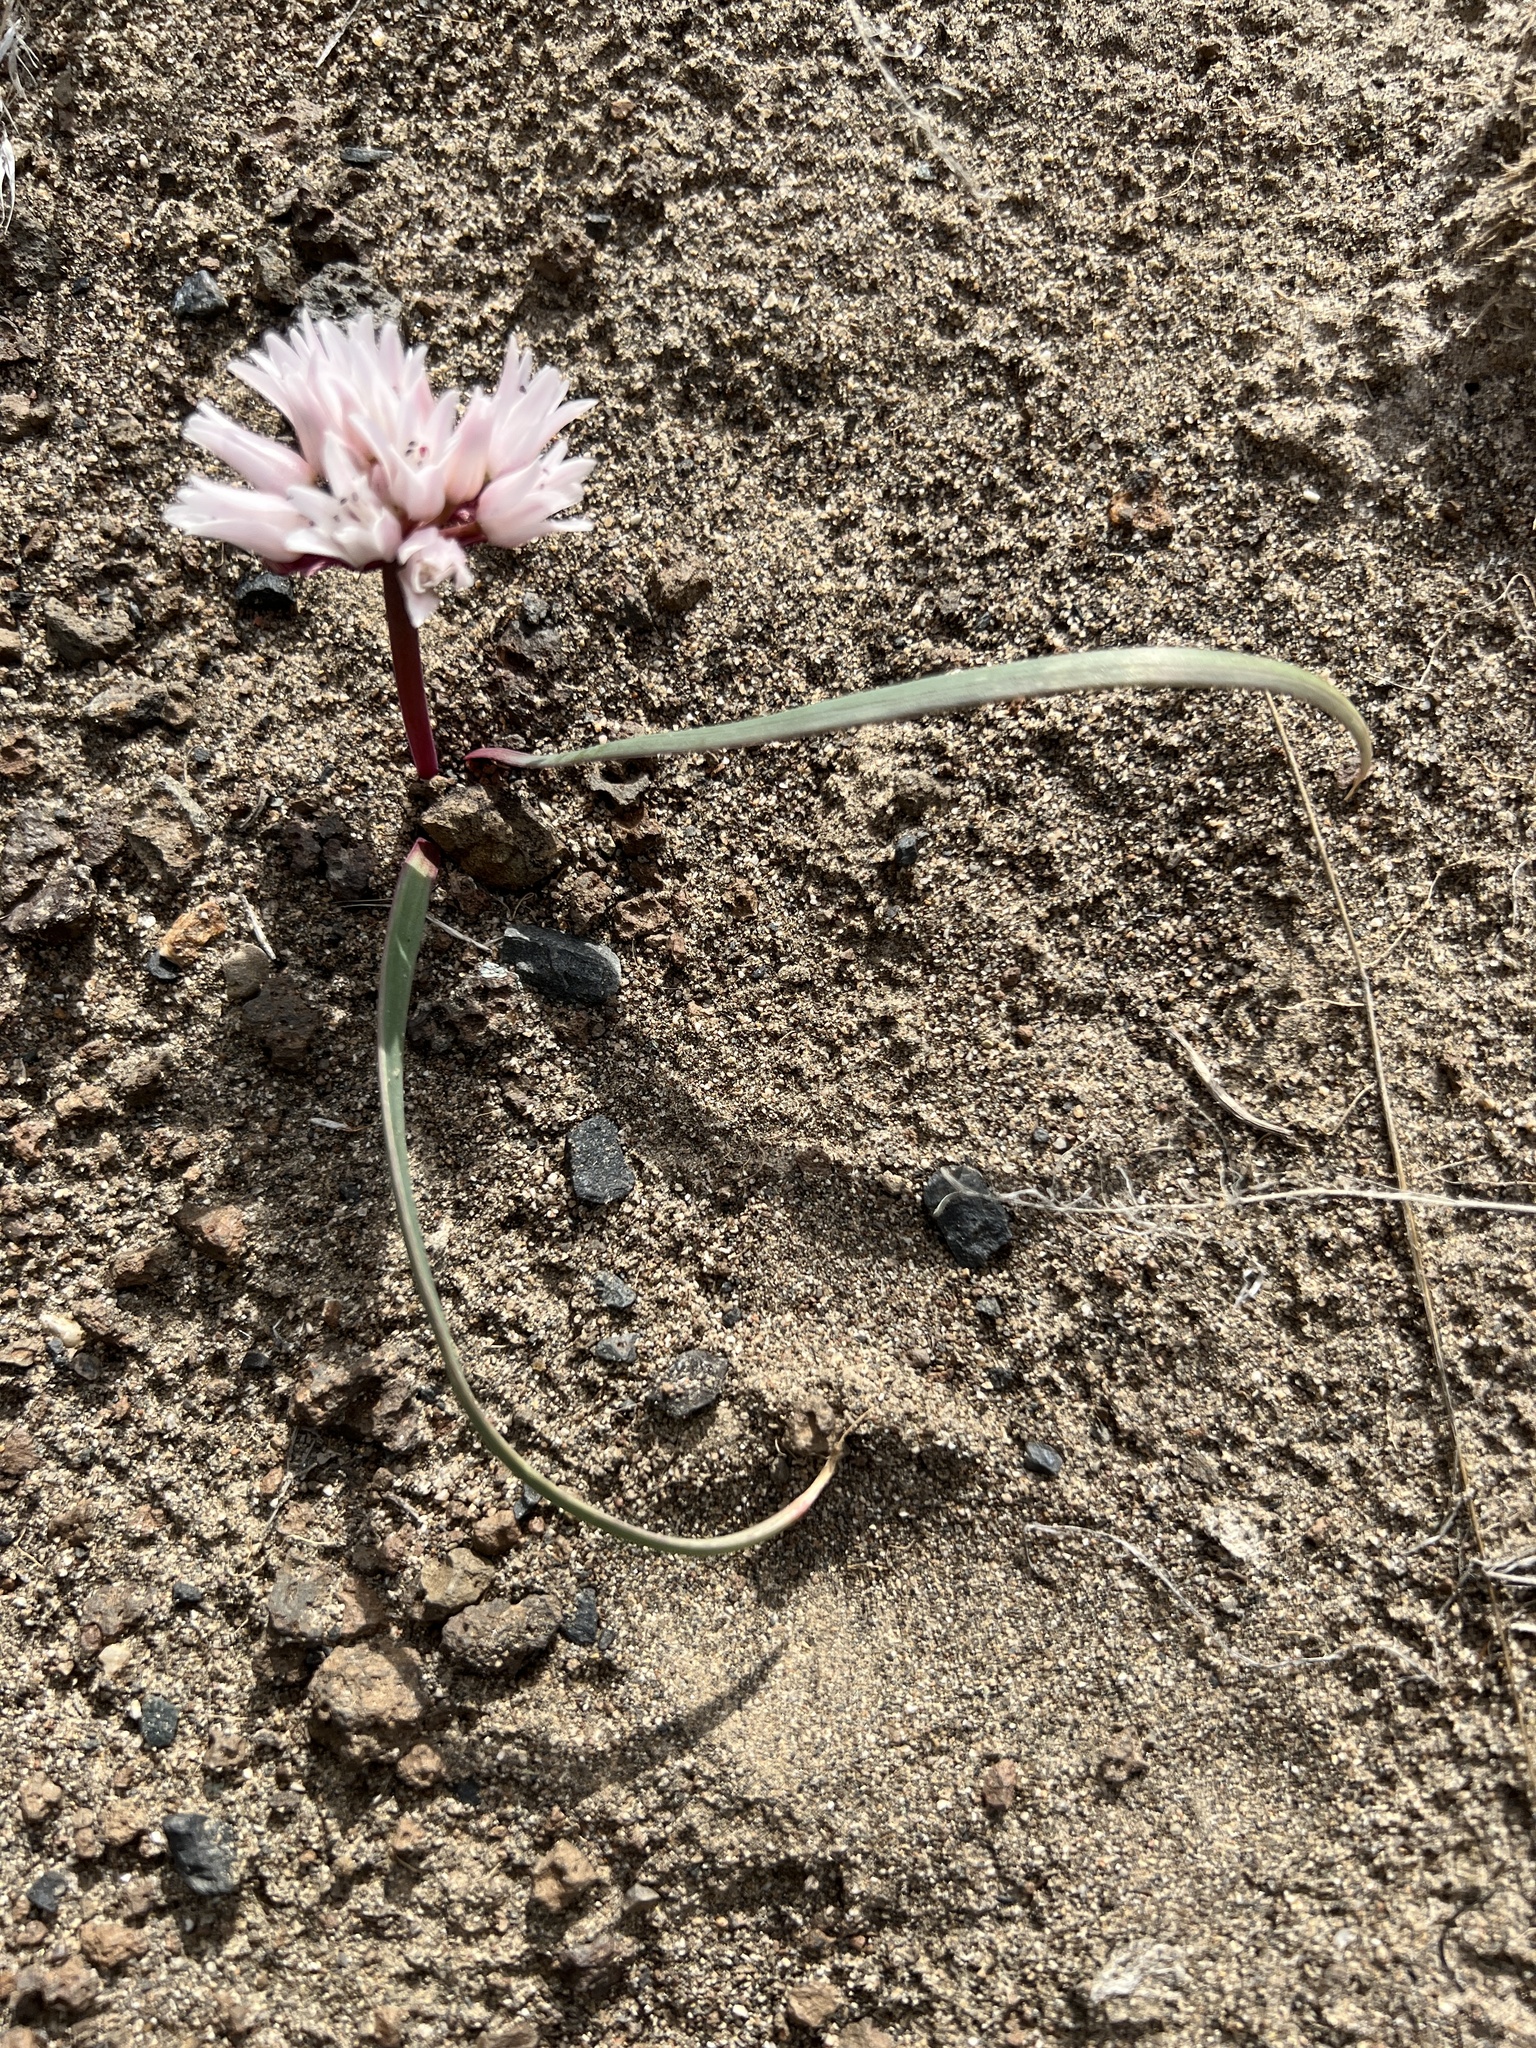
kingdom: Plantae
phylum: Tracheophyta
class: Liliopsida
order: Asparagales
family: Amaryllidaceae
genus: Allium
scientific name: Allium robinsonii
